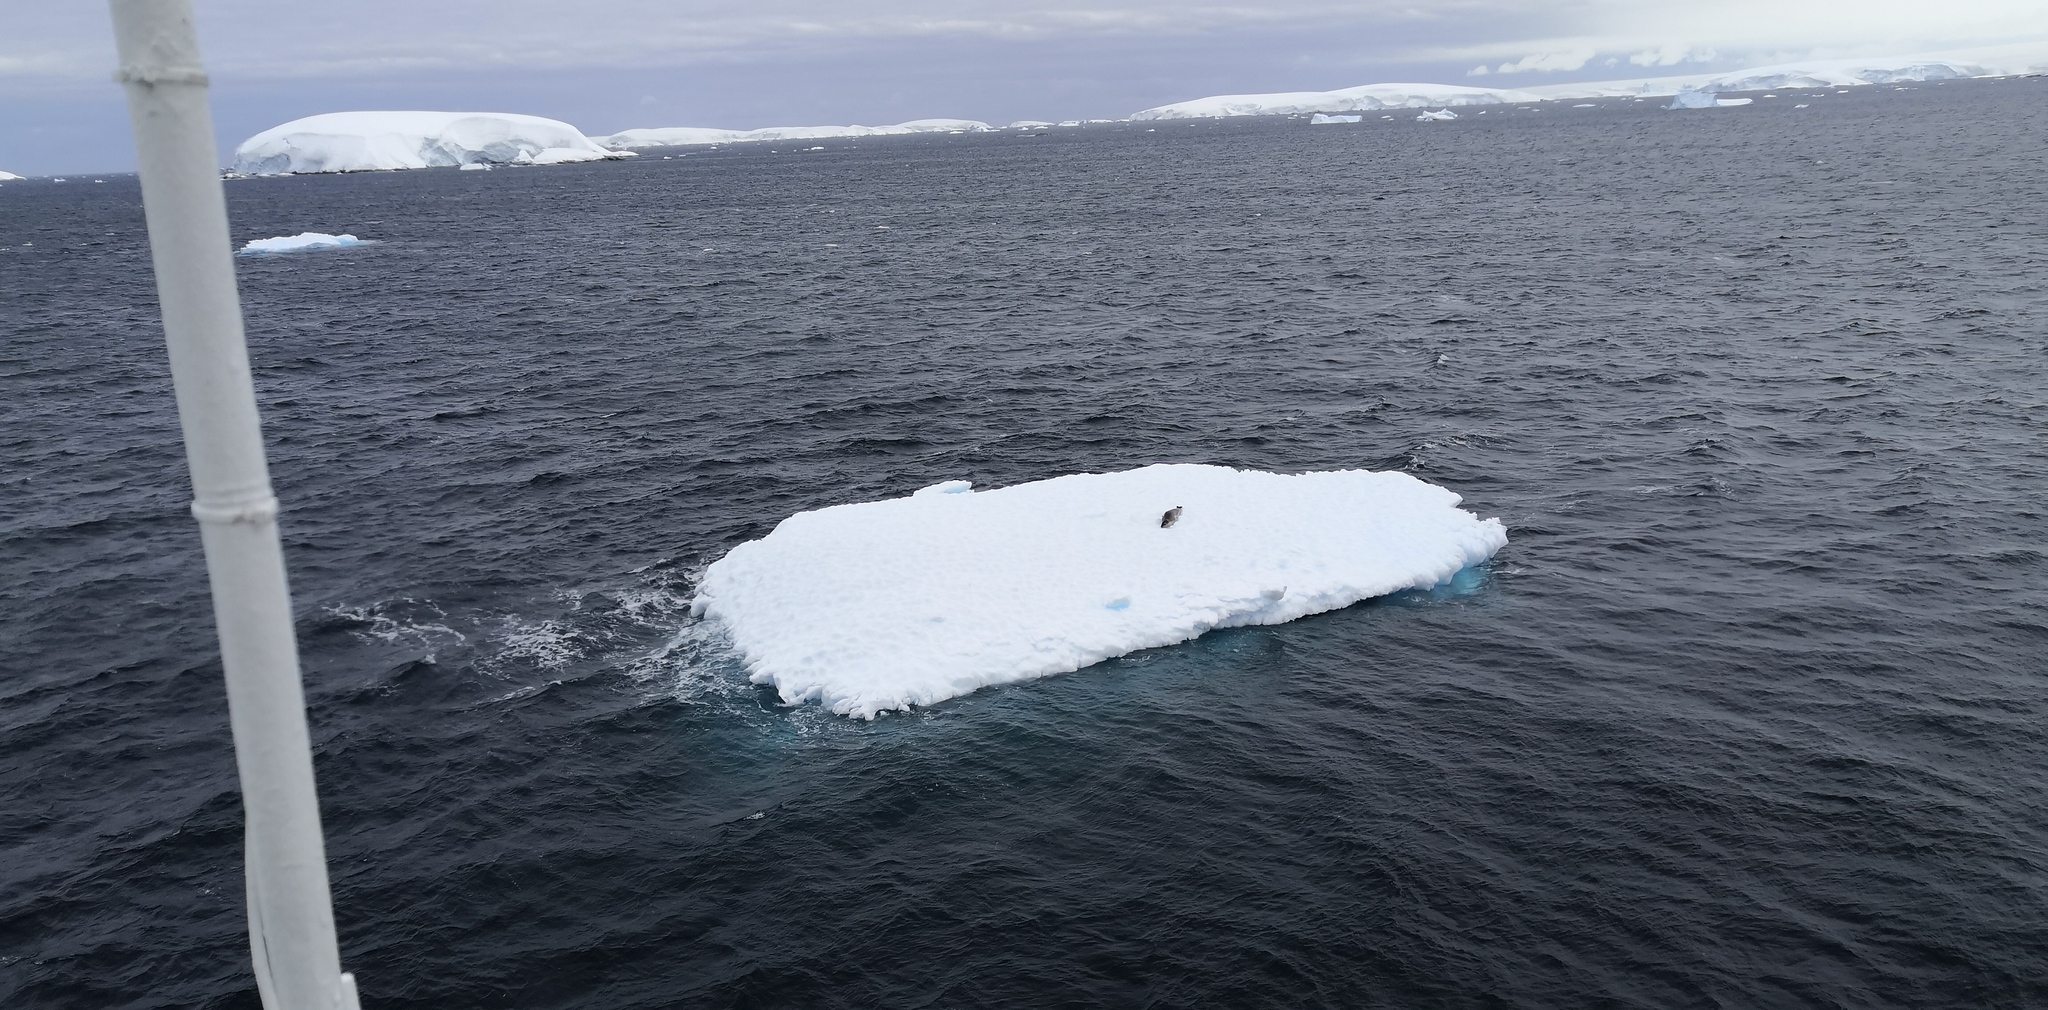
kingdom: Animalia
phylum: Chordata
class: Mammalia
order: Carnivora
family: Phocidae
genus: Hydrurga
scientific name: Hydrurga leptonyx
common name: Leopard seal
